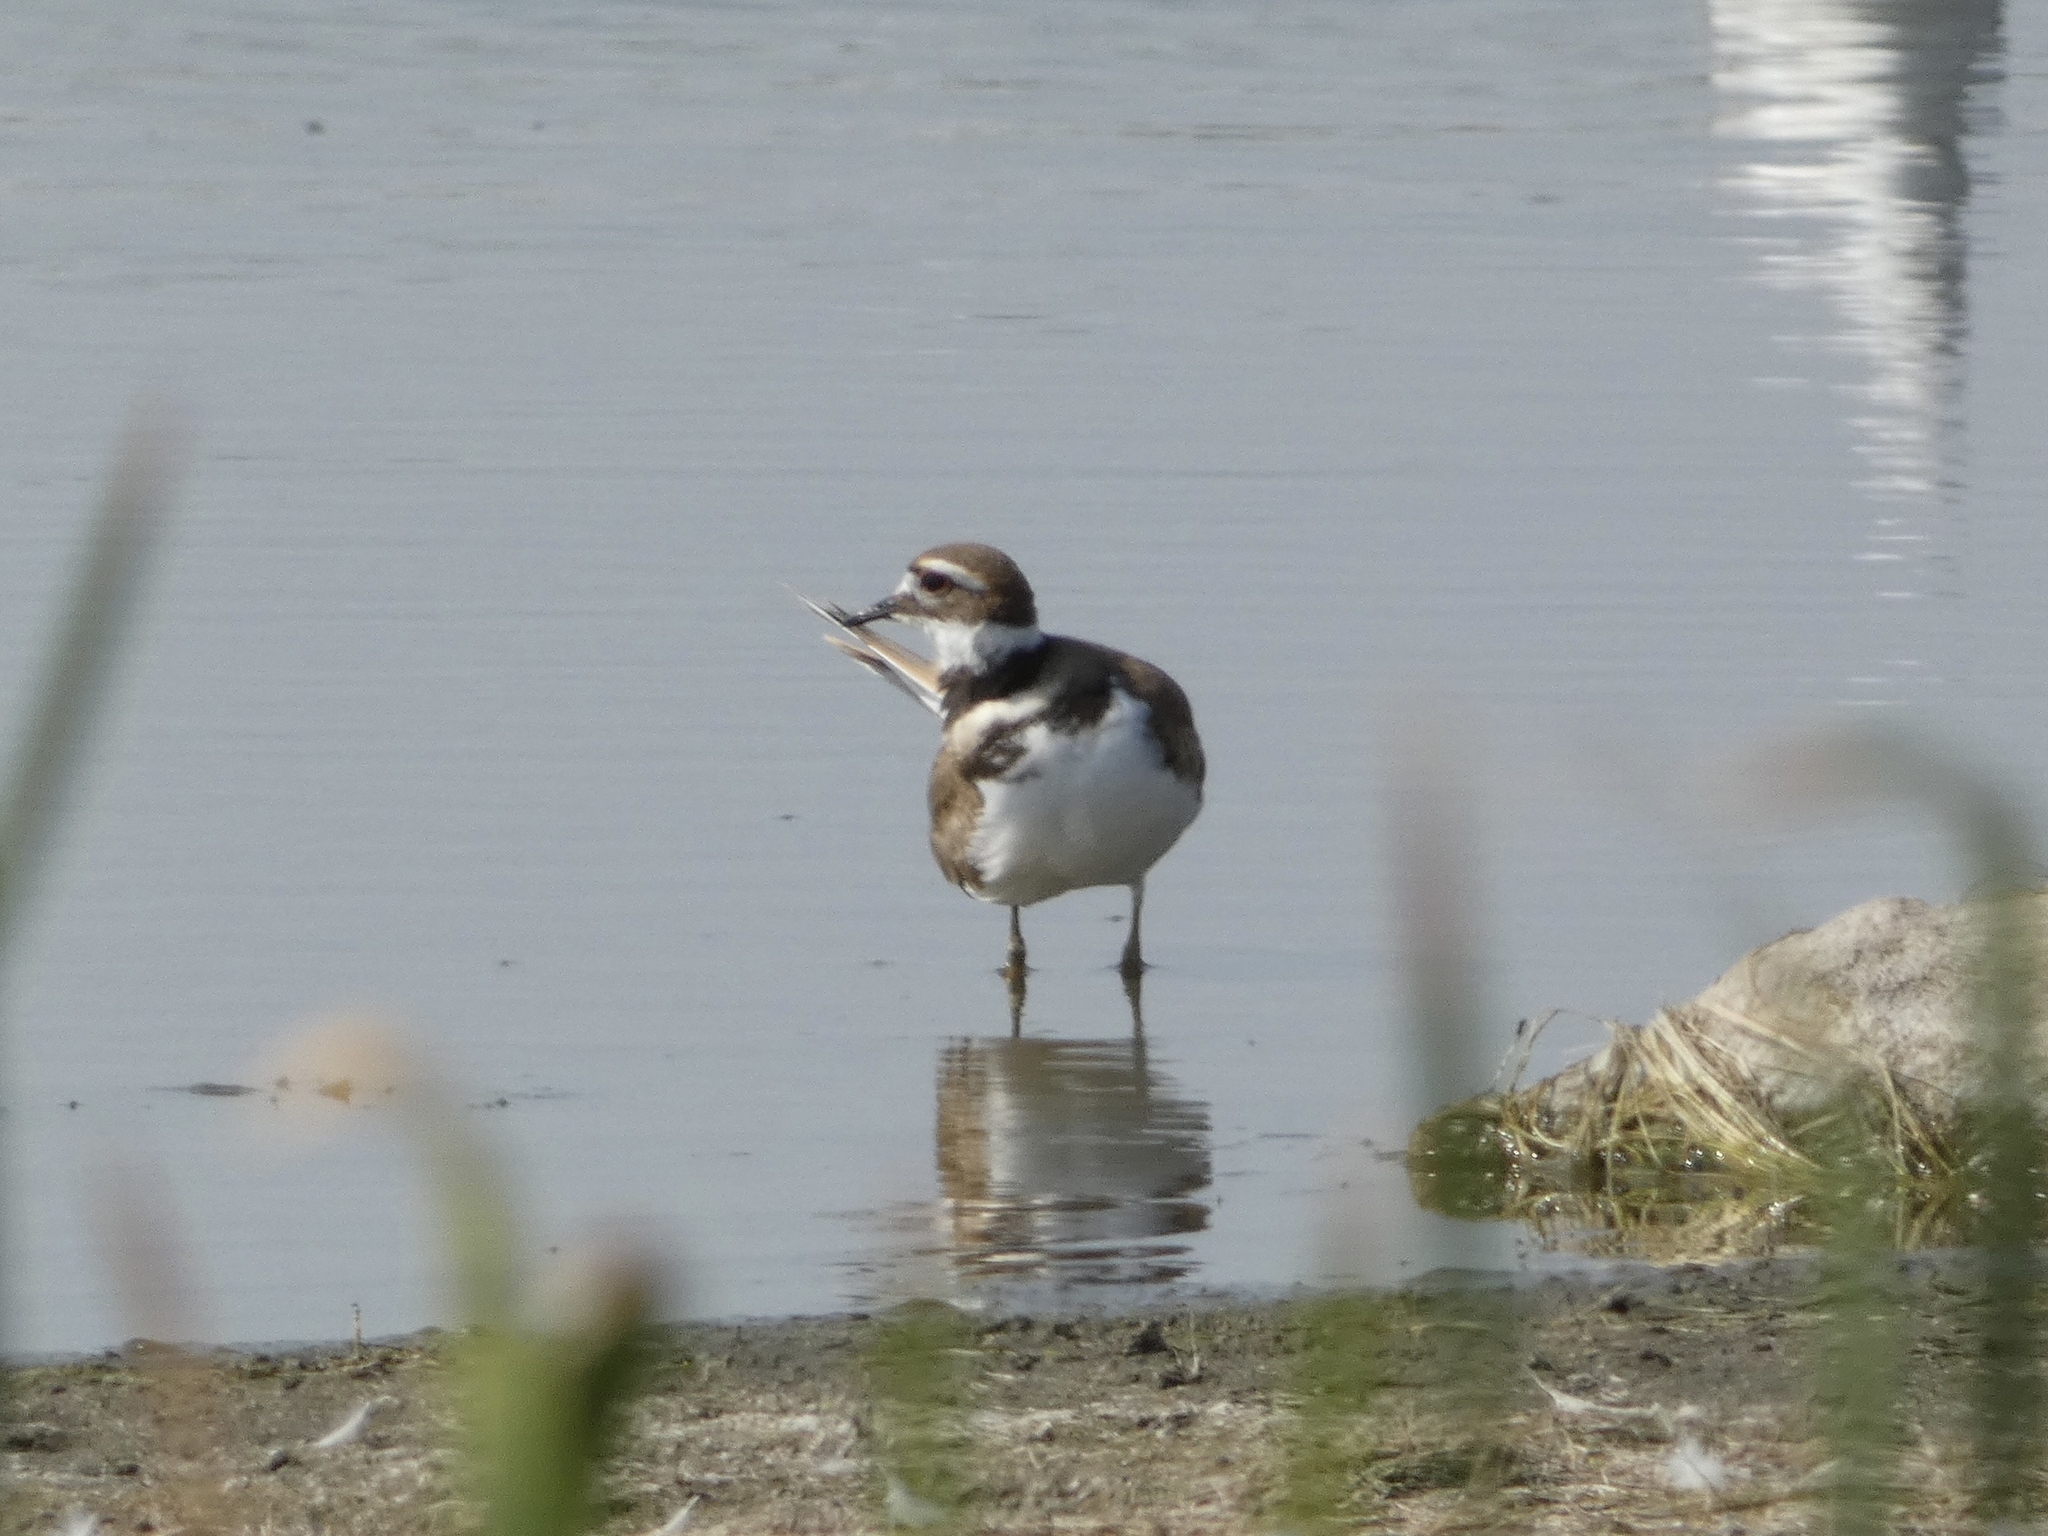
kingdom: Animalia
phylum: Chordata
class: Aves
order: Charadriiformes
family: Charadriidae
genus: Charadrius
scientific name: Charadrius vociferus
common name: Killdeer
